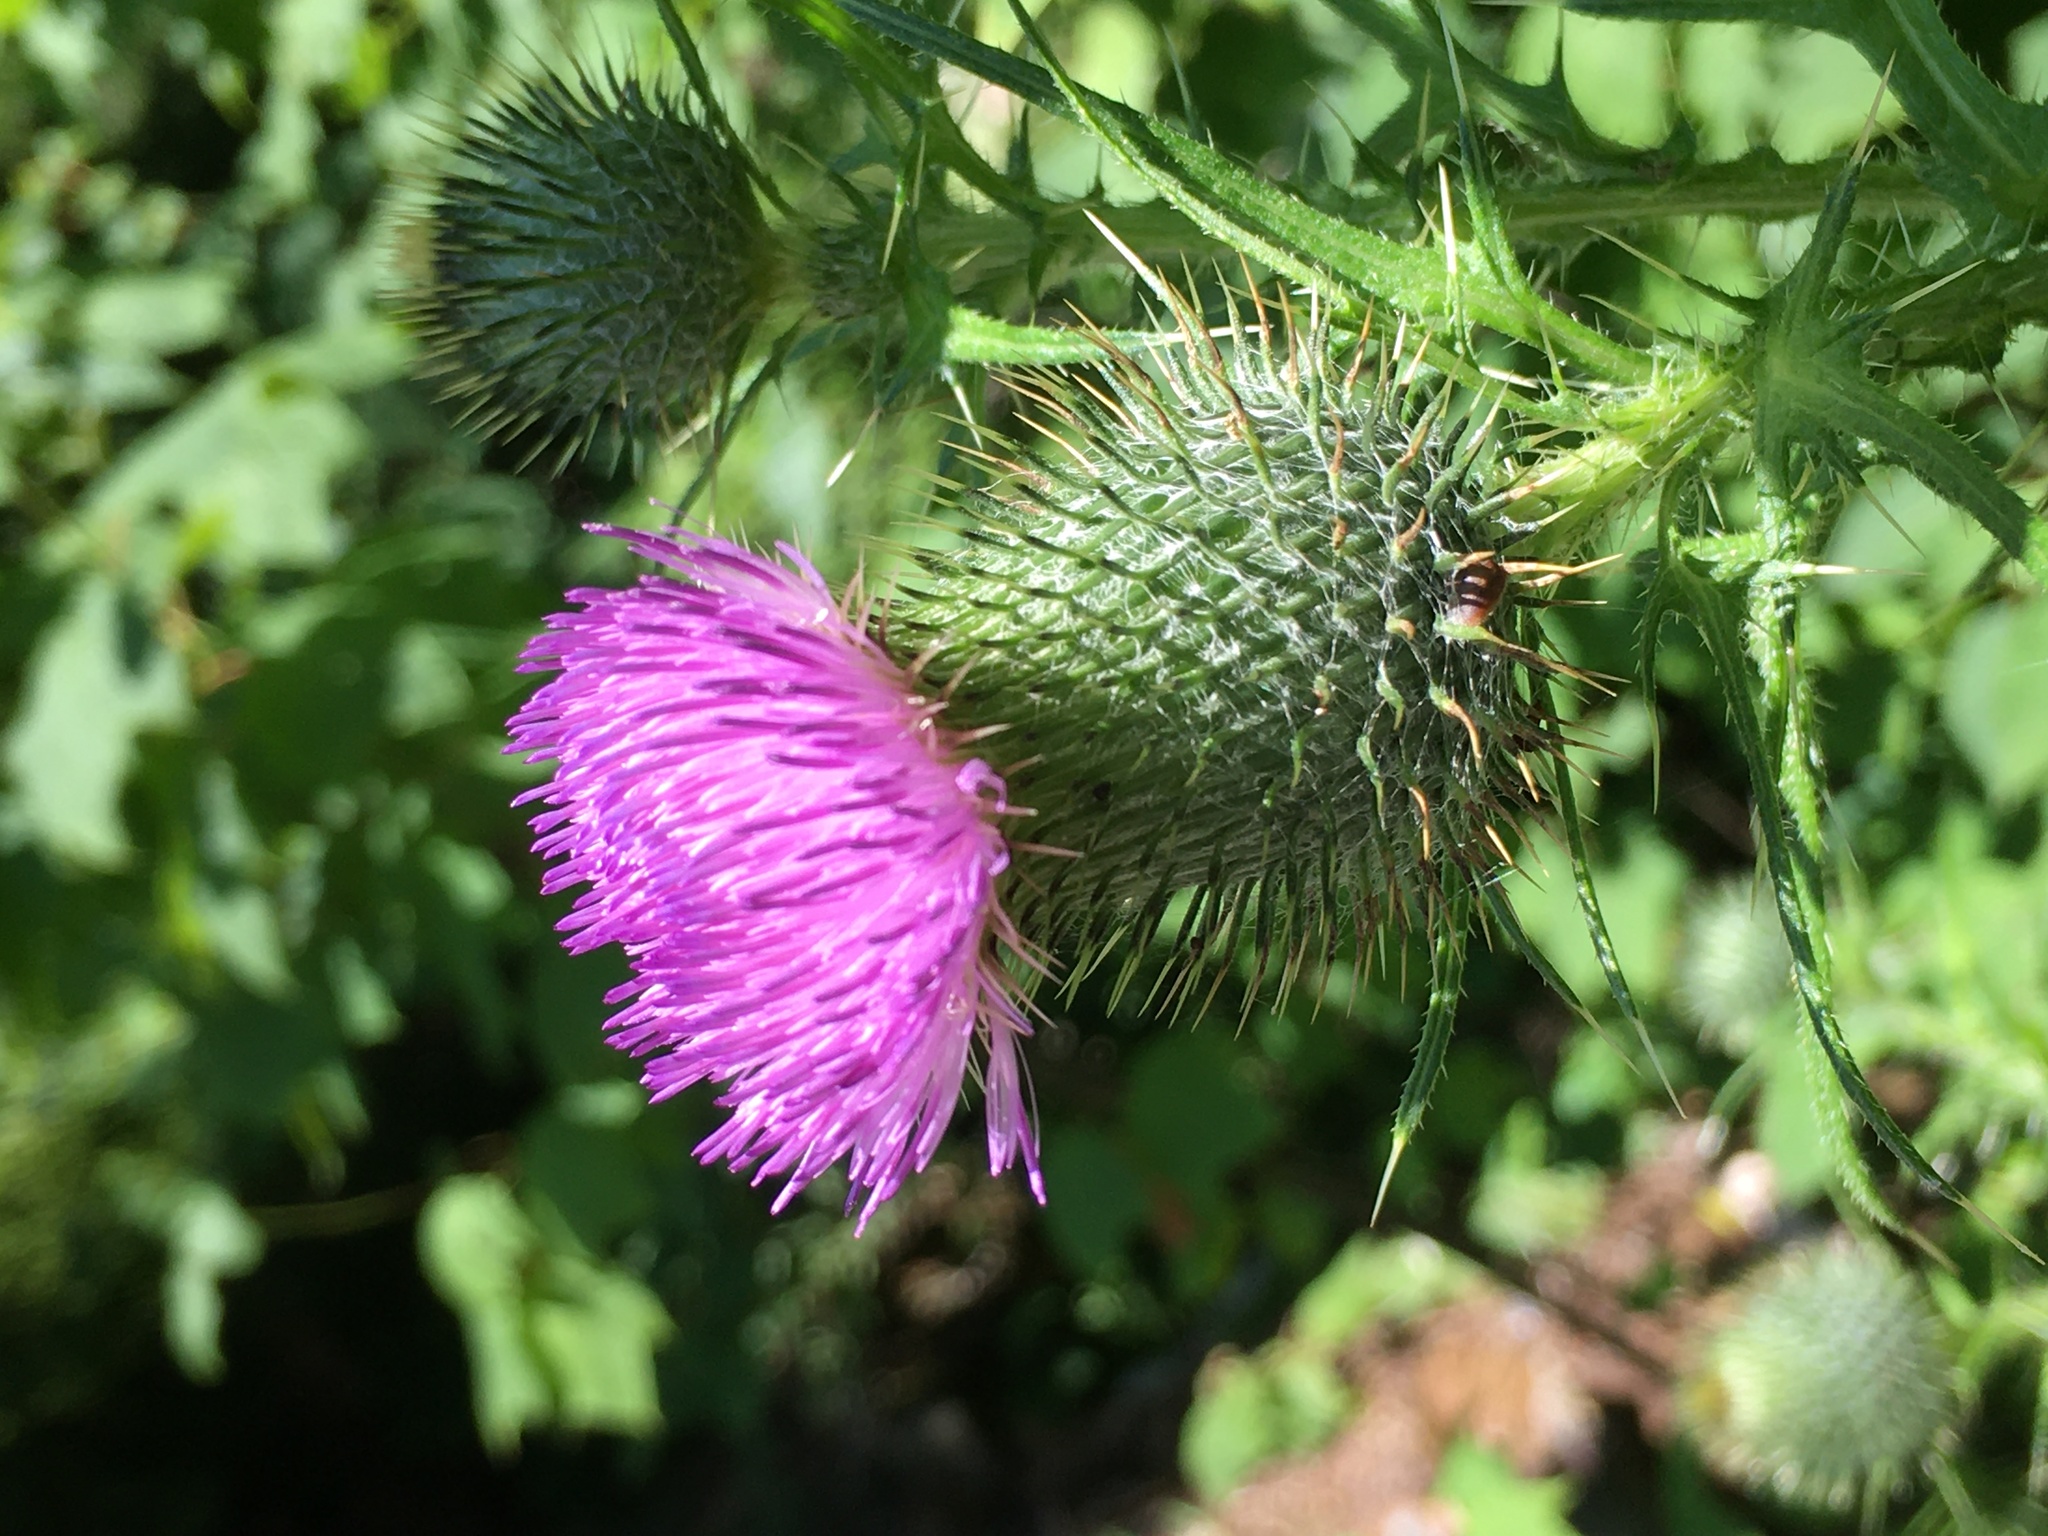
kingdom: Plantae
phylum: Tracheophyta
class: Magnoliopsida
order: Asterales
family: Asteraceae
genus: Cirsium
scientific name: Cirsium vulgare
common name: Bull thistle
